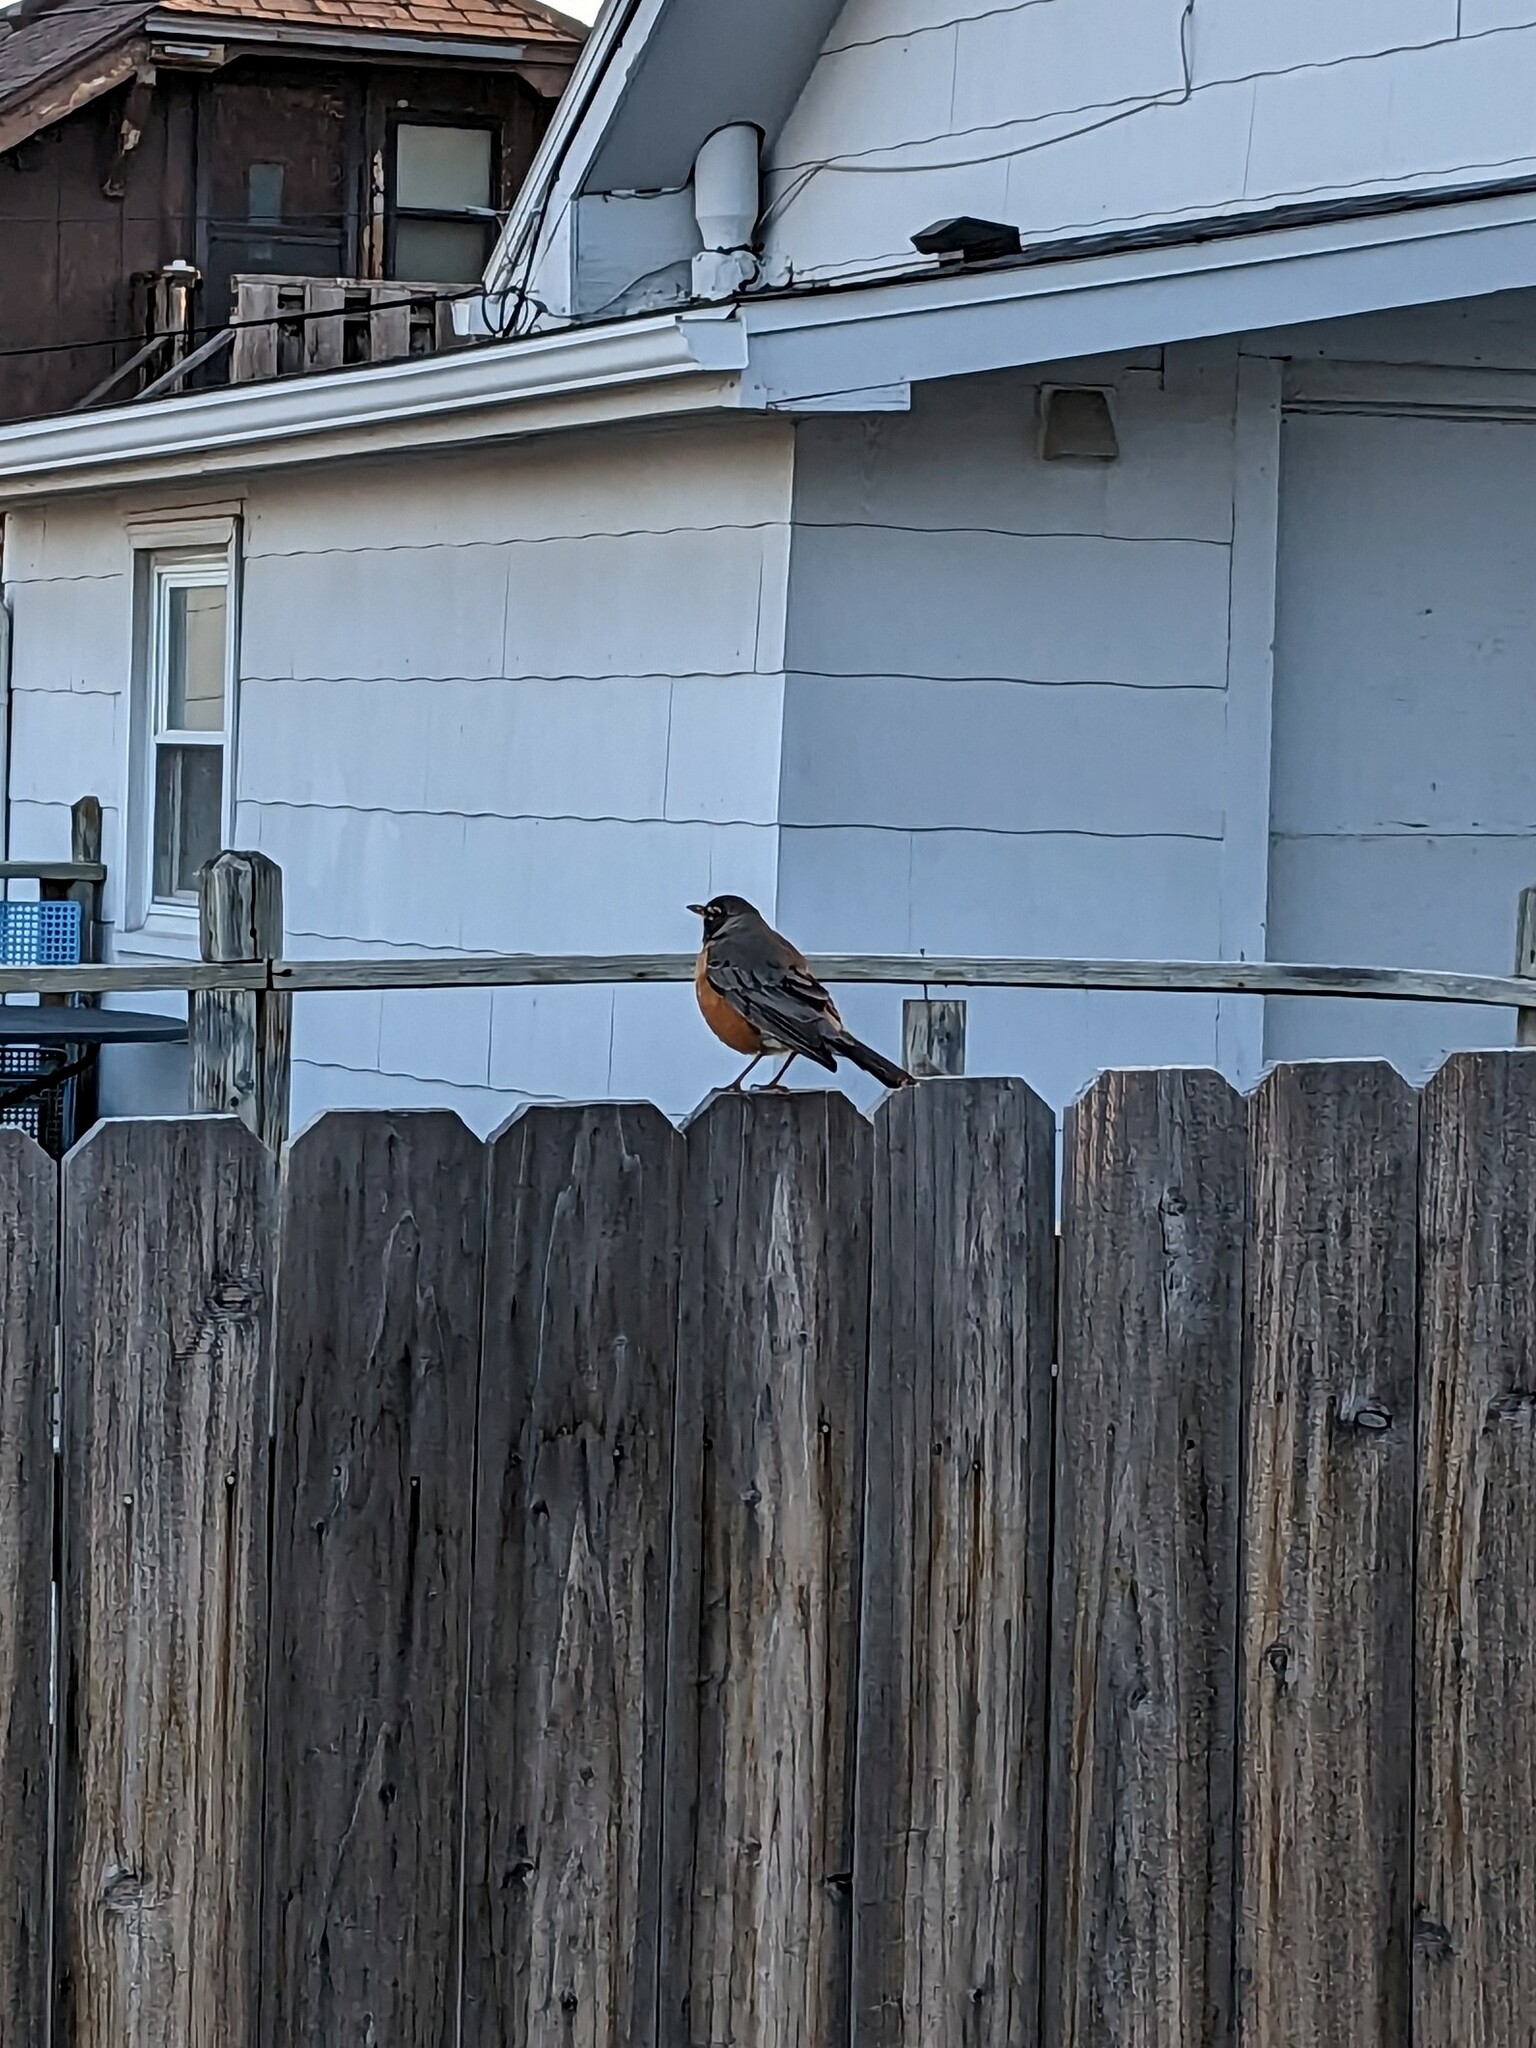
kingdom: Animalia
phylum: Chordata
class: Aves
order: Passeriformes
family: Turdidae
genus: Turdus
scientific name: Turdus migratorius
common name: American robin
